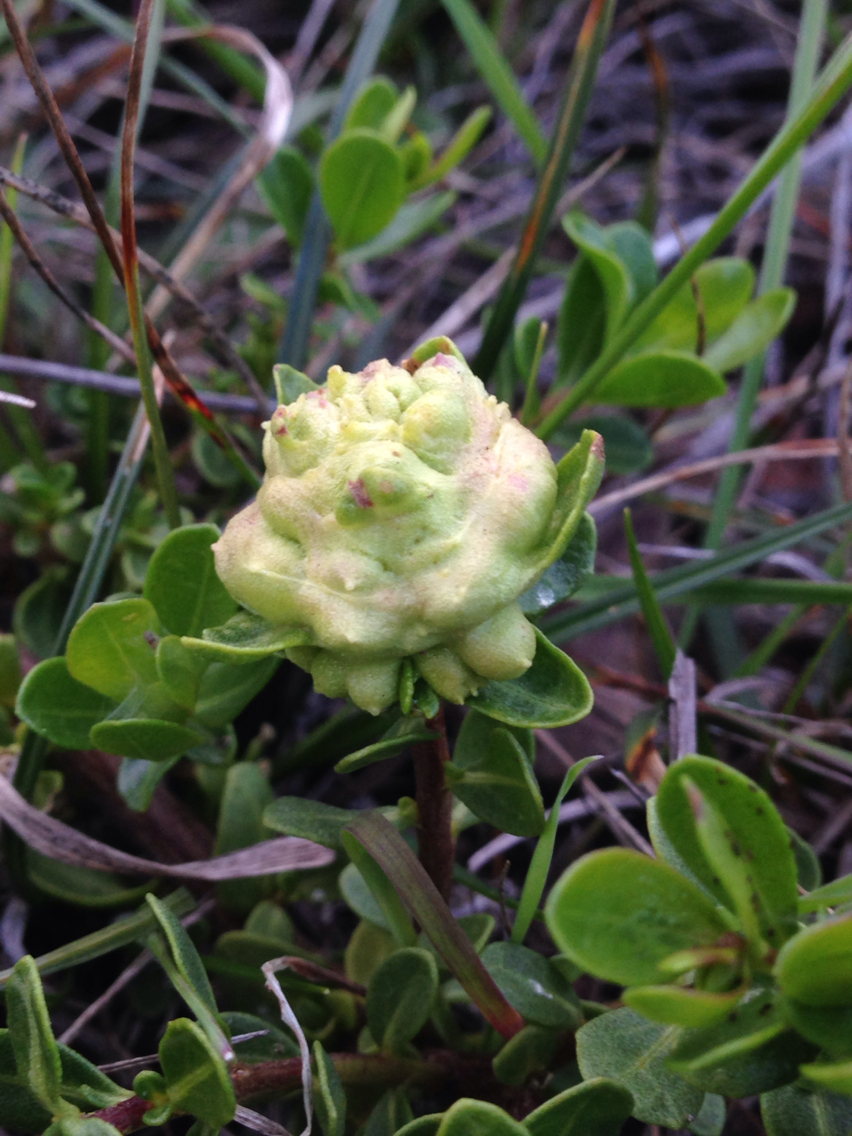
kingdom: Animalia
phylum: Arthropoda
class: Insecta
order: Diptera
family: Cecidomyiidae
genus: Rhopalomyia
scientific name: Rhopalomyia californica
